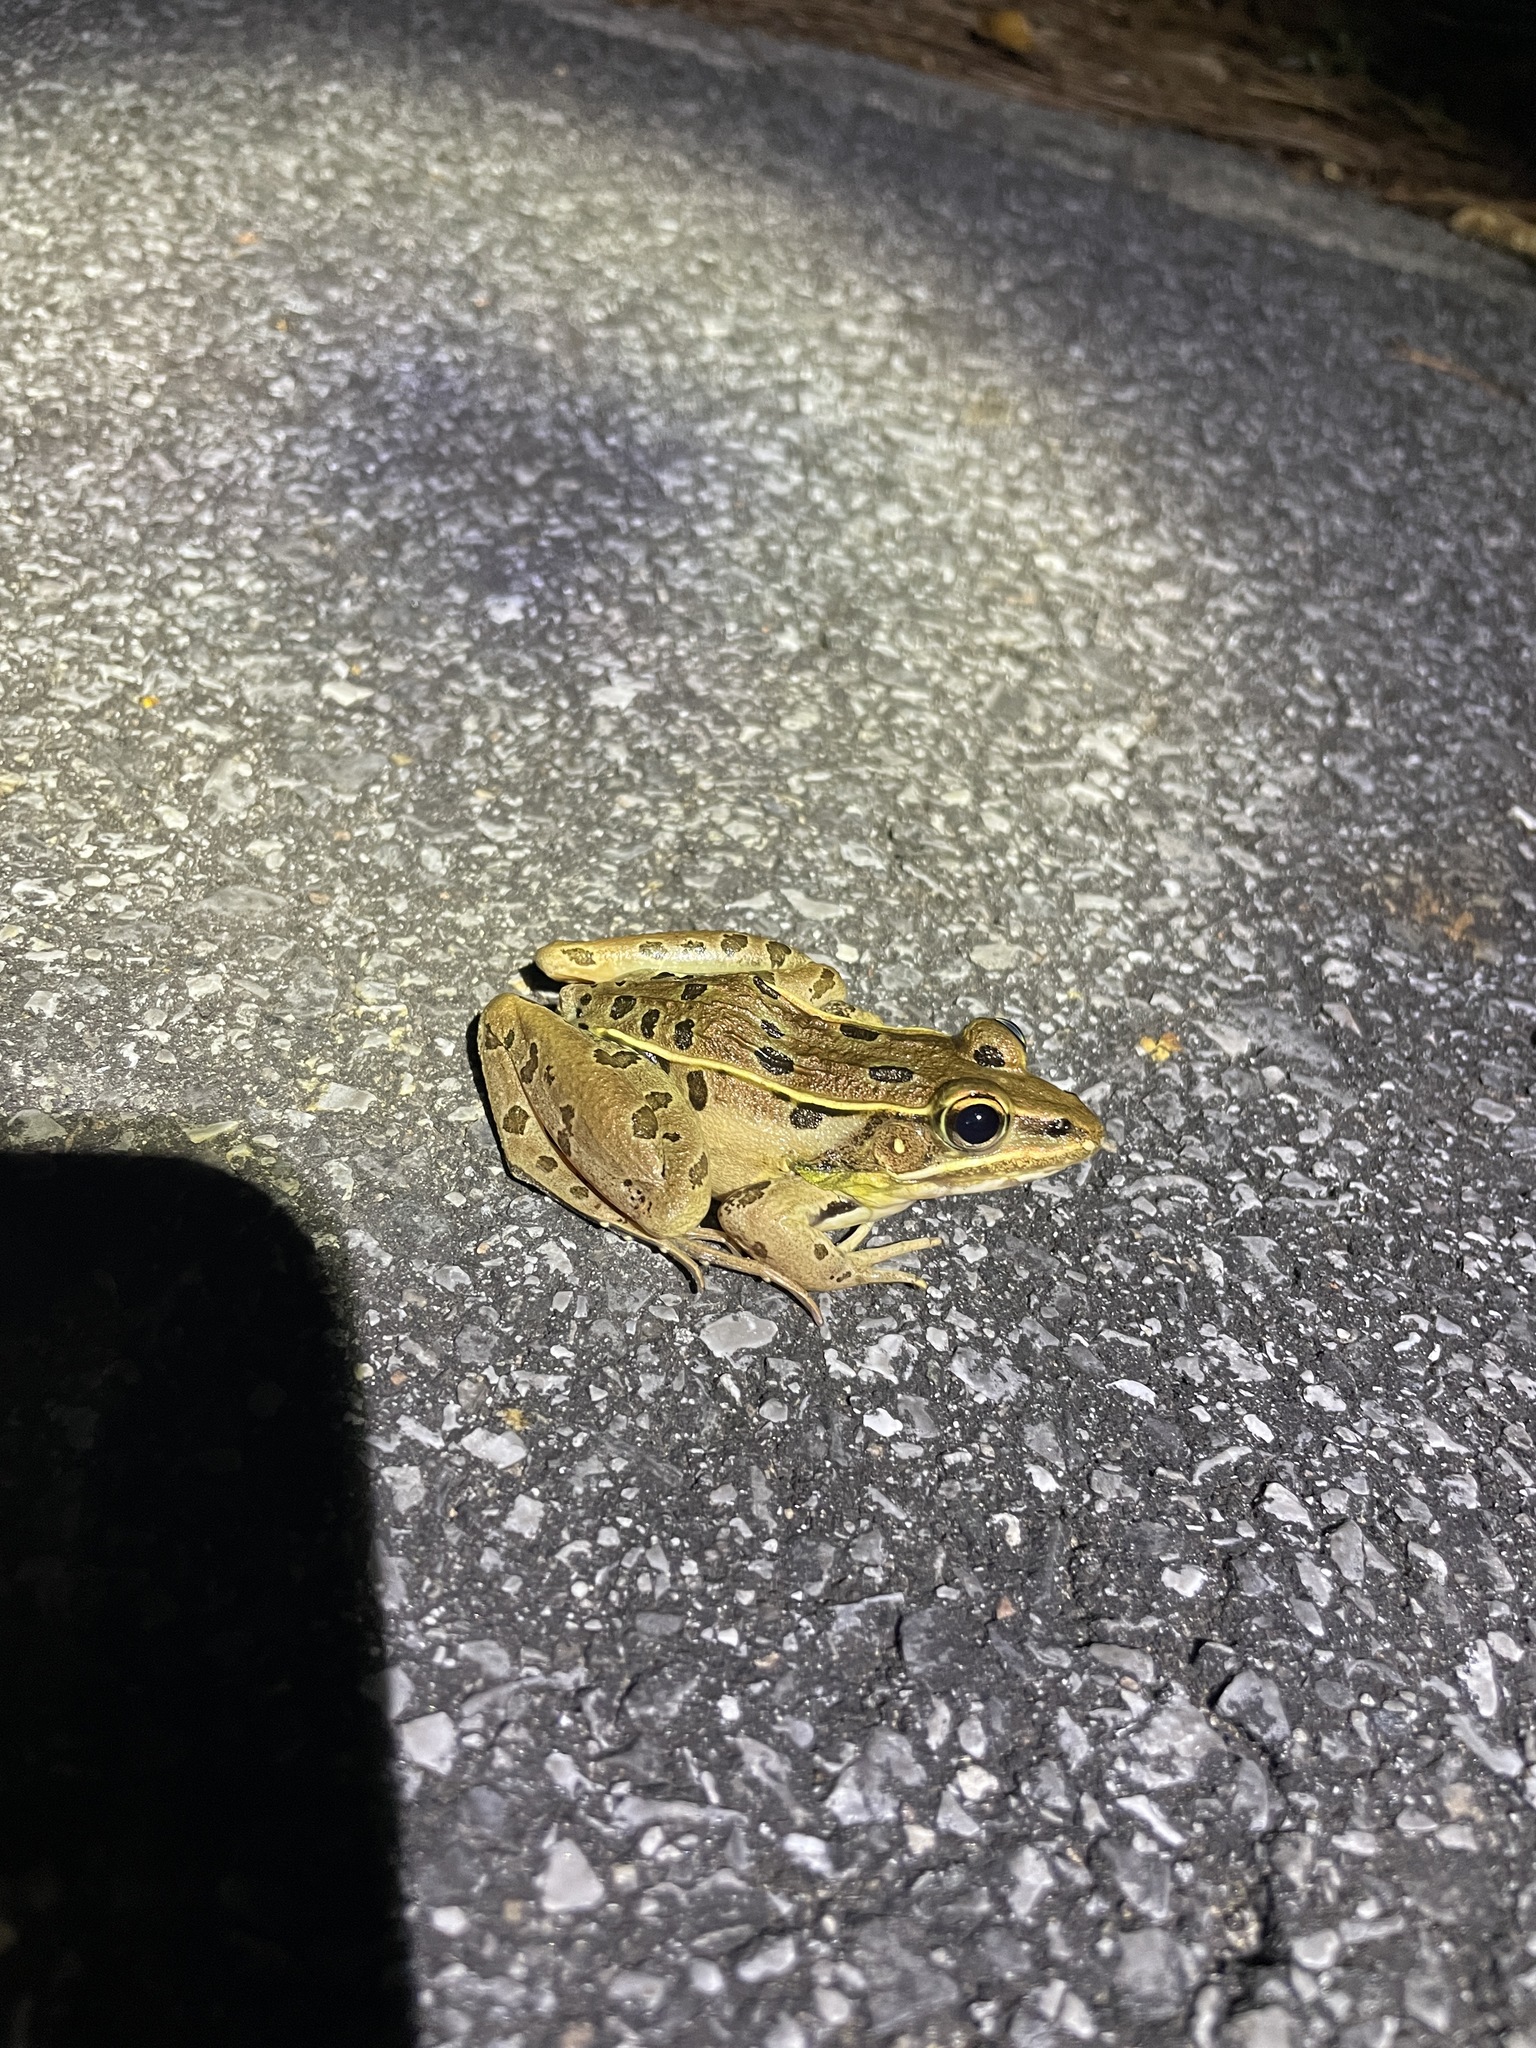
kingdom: Animalia
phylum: Chordata
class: Amphibia
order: Anura
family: Ranidae
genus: Lithobates
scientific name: Lithobates sphenocephalus
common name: Southern leopard frog
